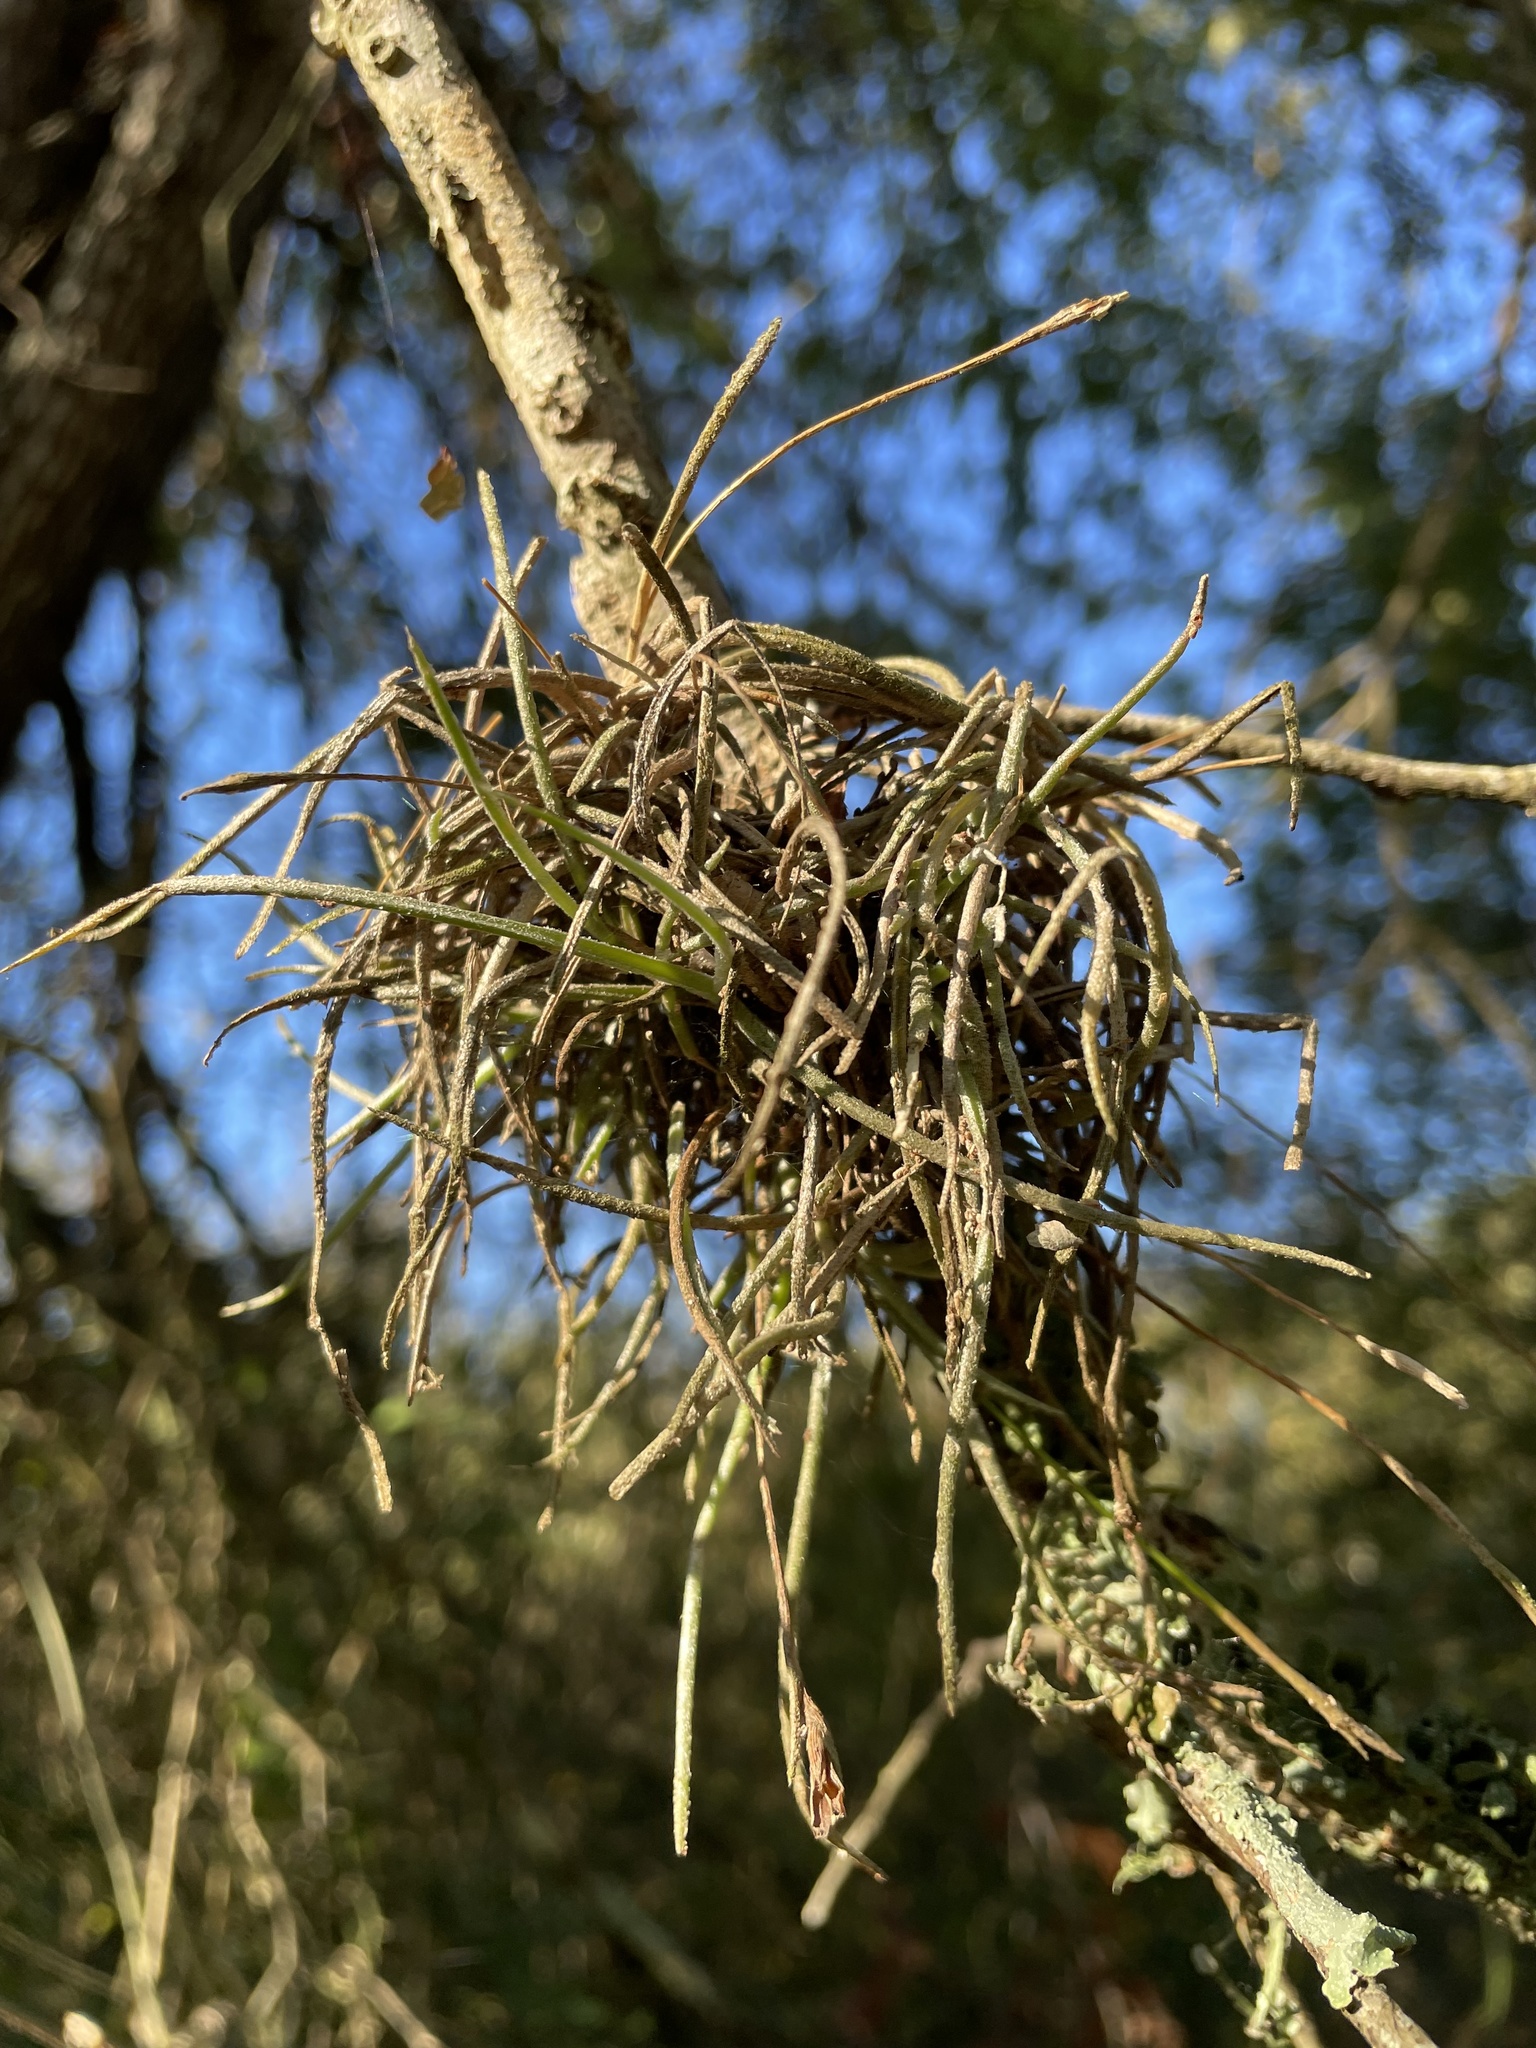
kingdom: Plantae
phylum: Tracheophyta
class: Liliopsida
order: Poales
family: Bromeliaceae
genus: Tillandsia
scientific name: Tillandsia recurvata
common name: Small ballmoss
